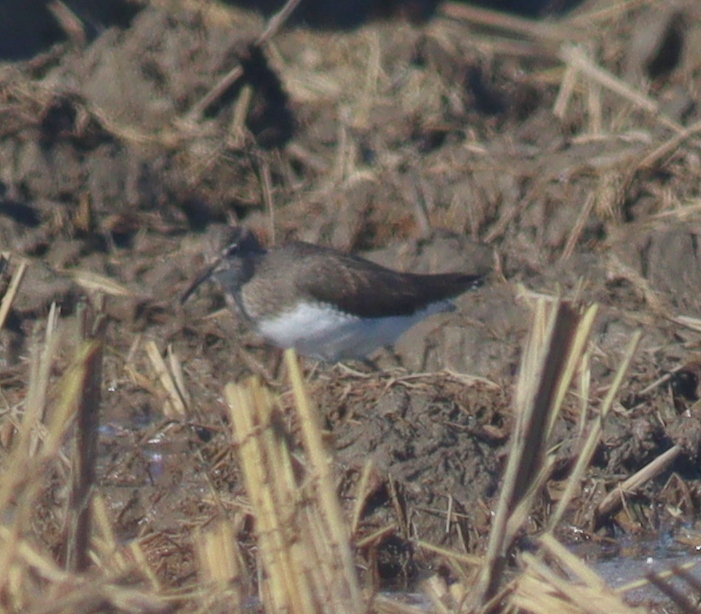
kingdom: Animalia
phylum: Chordata
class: Aves
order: Charadriiformes
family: Scolopacidae
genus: Tringa
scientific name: Tringa ochropus
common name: Green sandpiper
